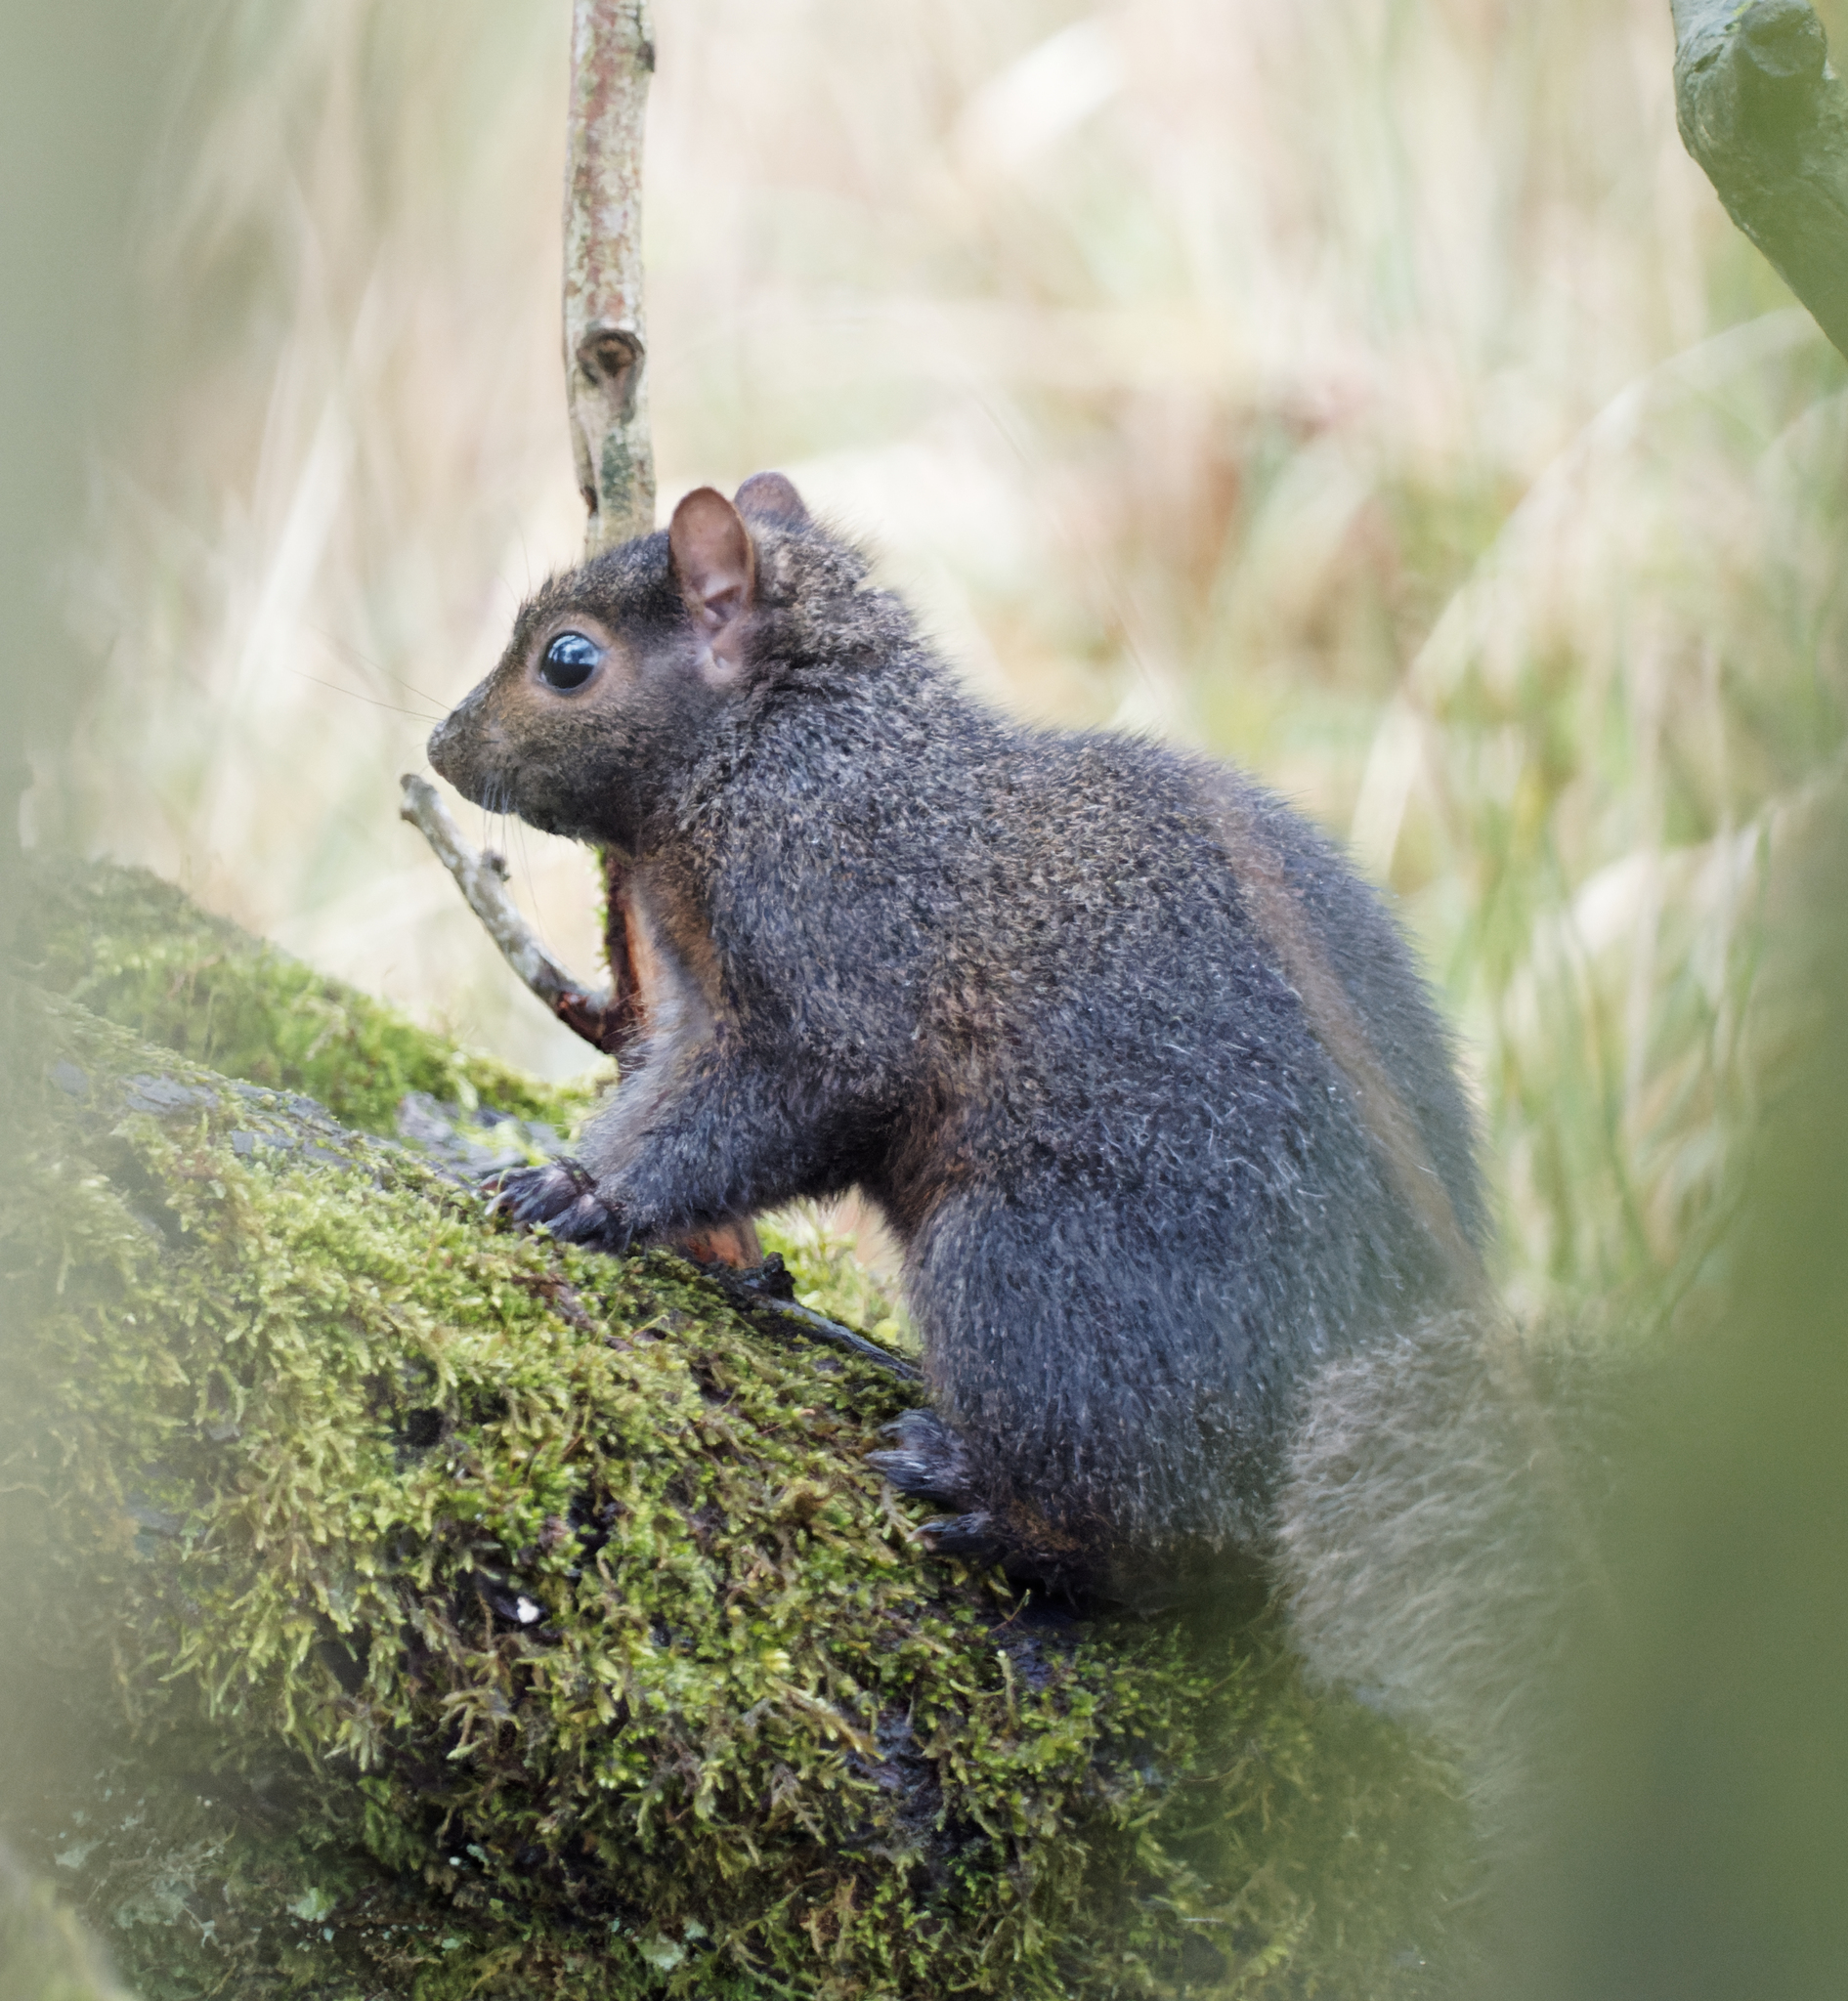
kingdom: Animalia
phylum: Chordata
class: Mammalia
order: Rodentia
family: Sciuridae
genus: Sciurus
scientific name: Sciurus carolinensis
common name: Eastern gray squirrel
